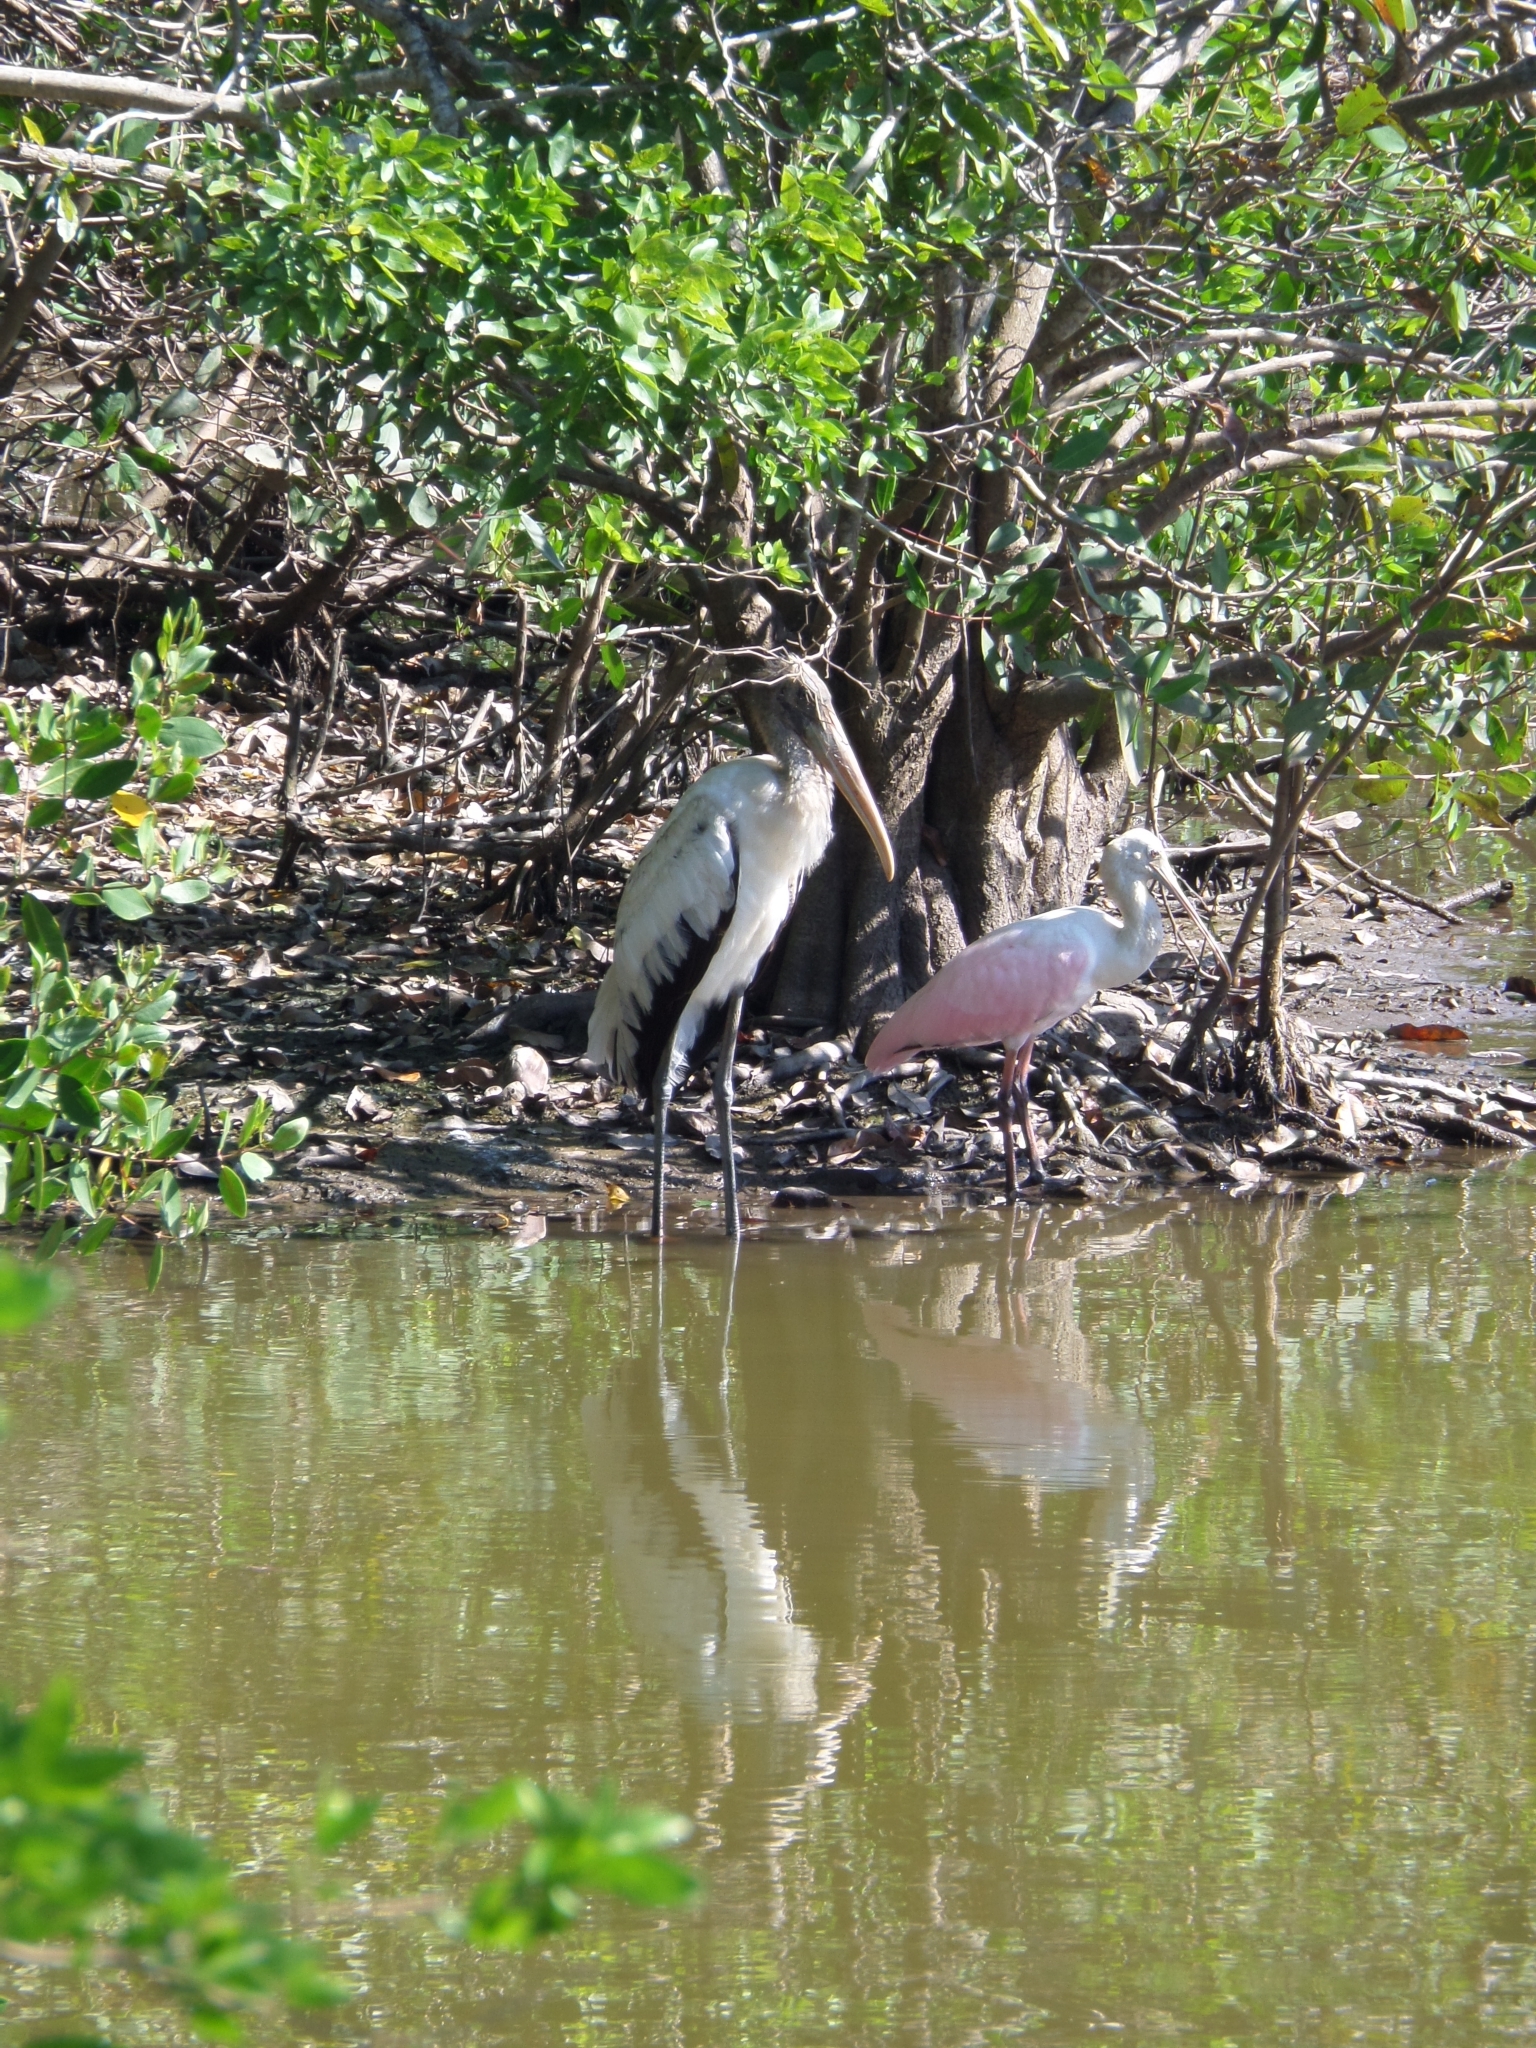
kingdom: Animalia
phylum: Chordata
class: Aves
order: Pelecaniformes
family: Threskiornithidae
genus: Platalea
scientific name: Platalea ajaja
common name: Roseate spoonbill
